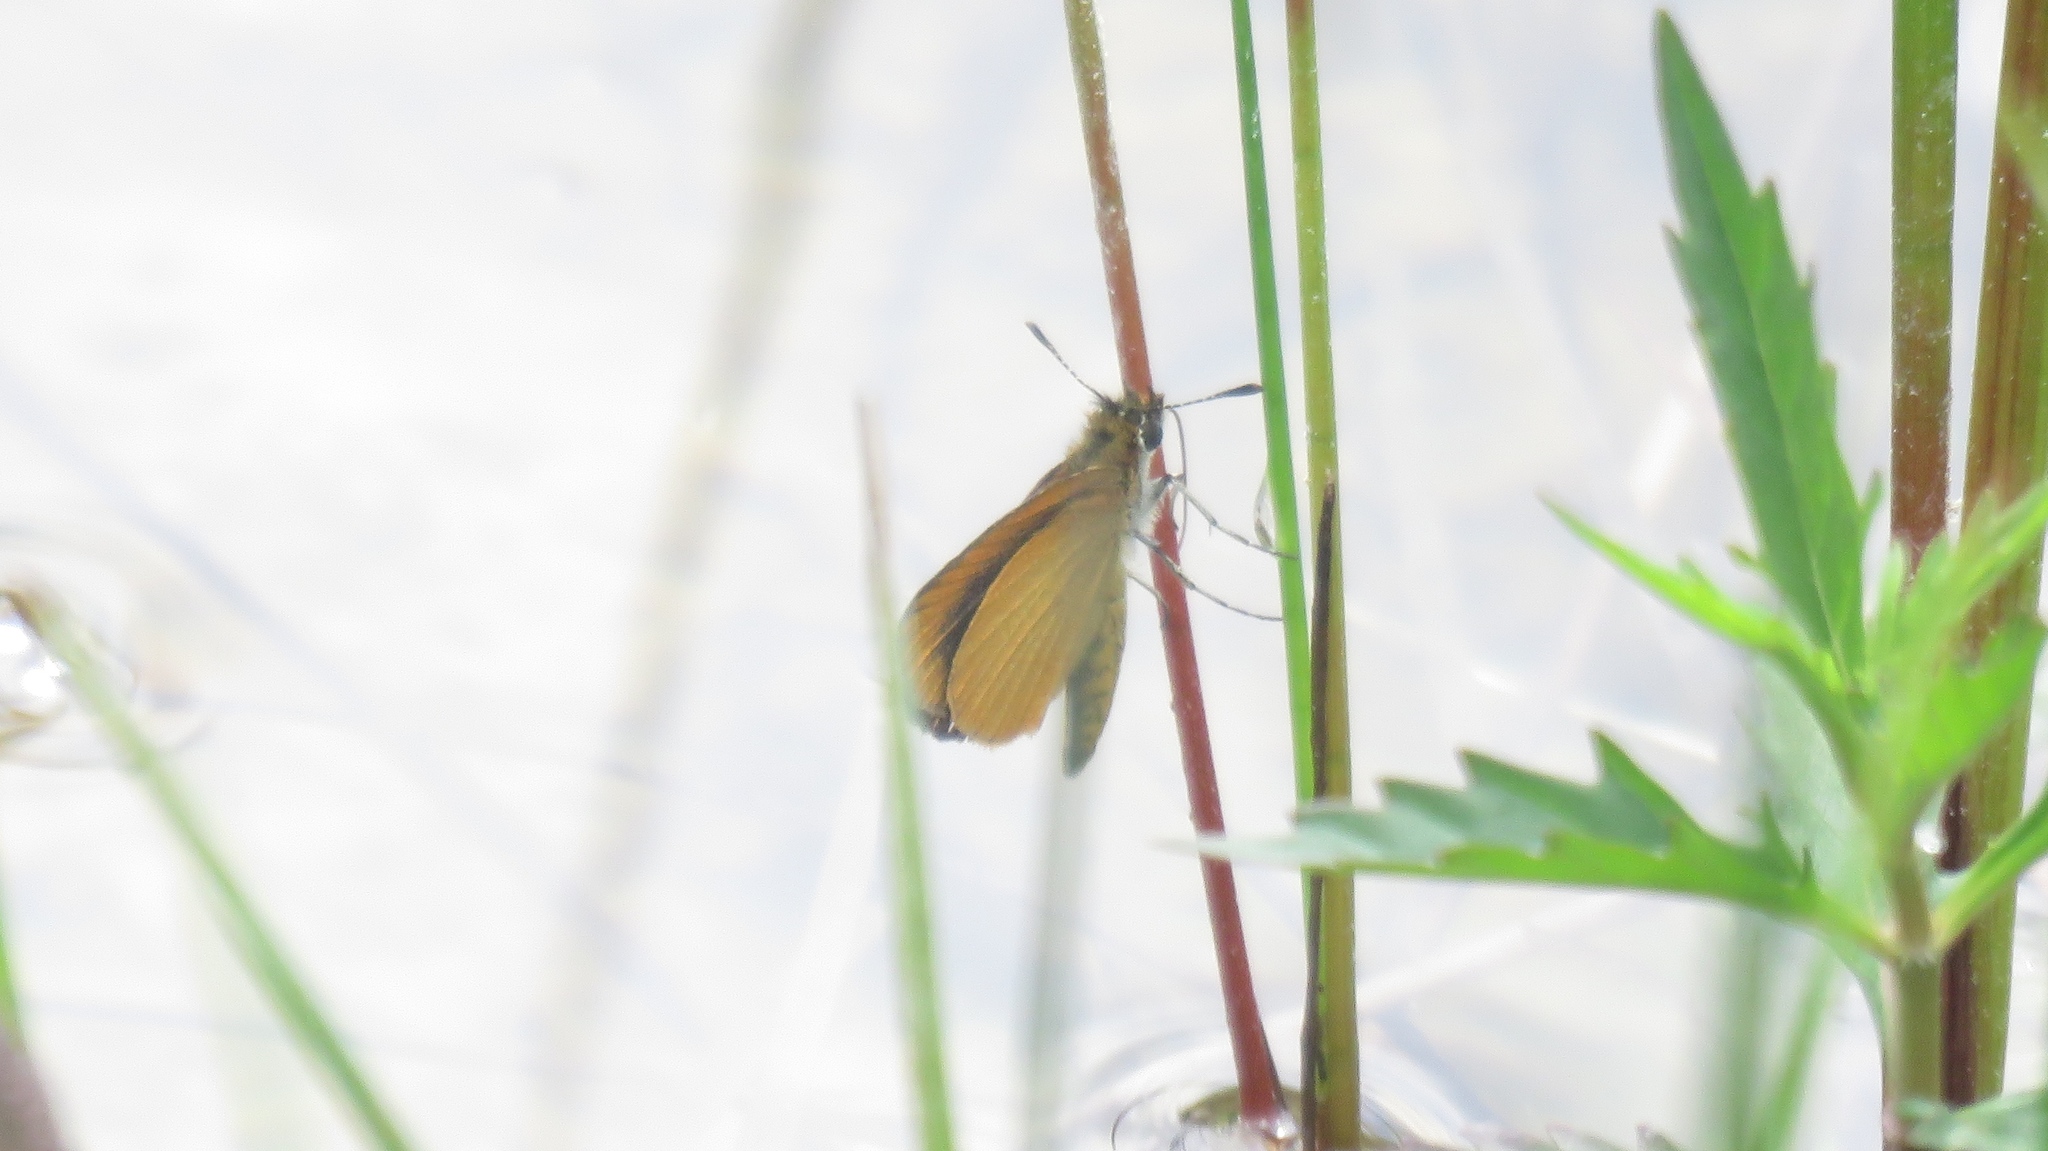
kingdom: Animalia
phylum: Arthropoda
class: Insecta
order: Lepidoptera
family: Hesperiidae
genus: Ancyloxypha
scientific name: Ancyloxypha numitor
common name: Least skipper
